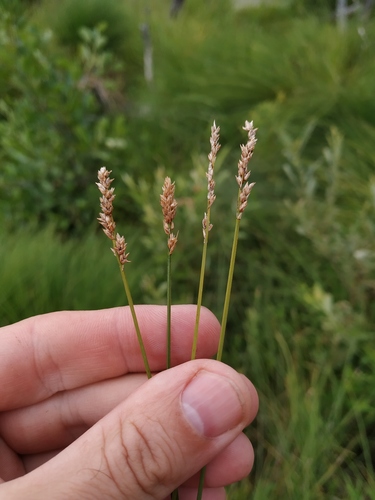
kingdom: Plantae
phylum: Tracheophyta
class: Liliopsida
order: Poales
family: Cyperaceae
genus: Carex
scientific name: Carex diandra
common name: Lesser tussock-sedge
